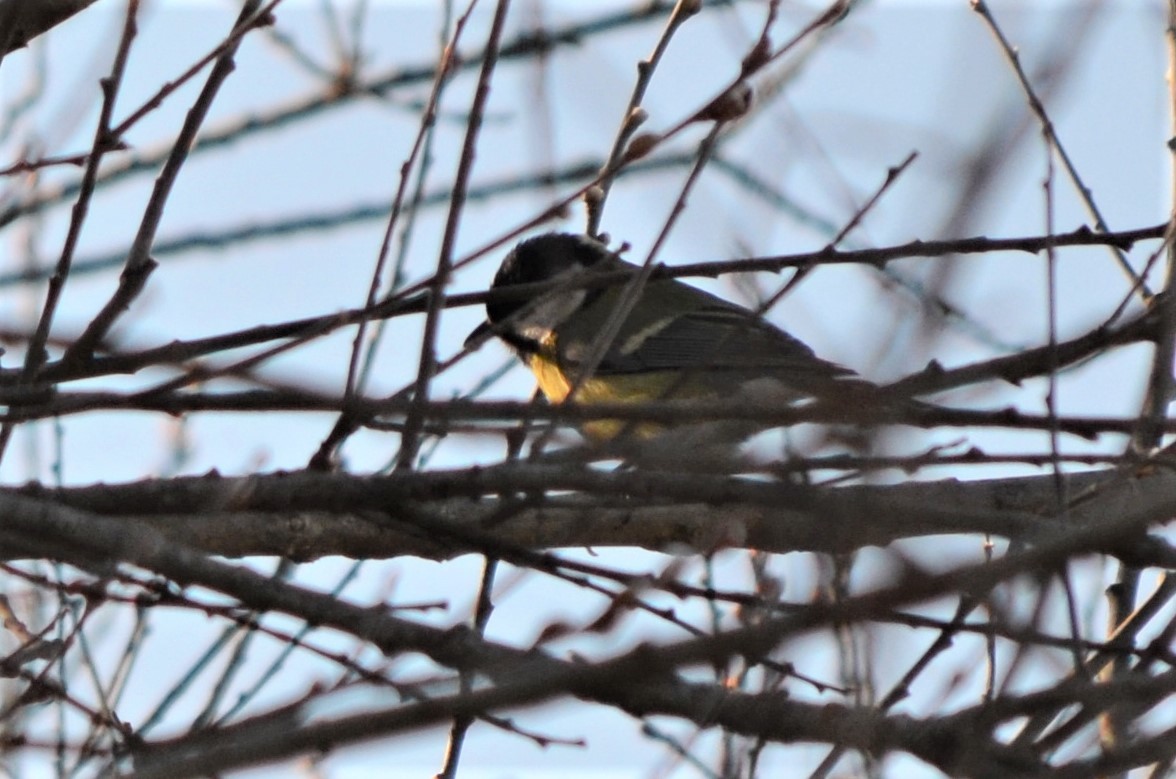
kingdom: Animalia
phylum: Chordata
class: Aves
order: Passeriformes
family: Paridae
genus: Parus
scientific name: Parus major
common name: Great tit
